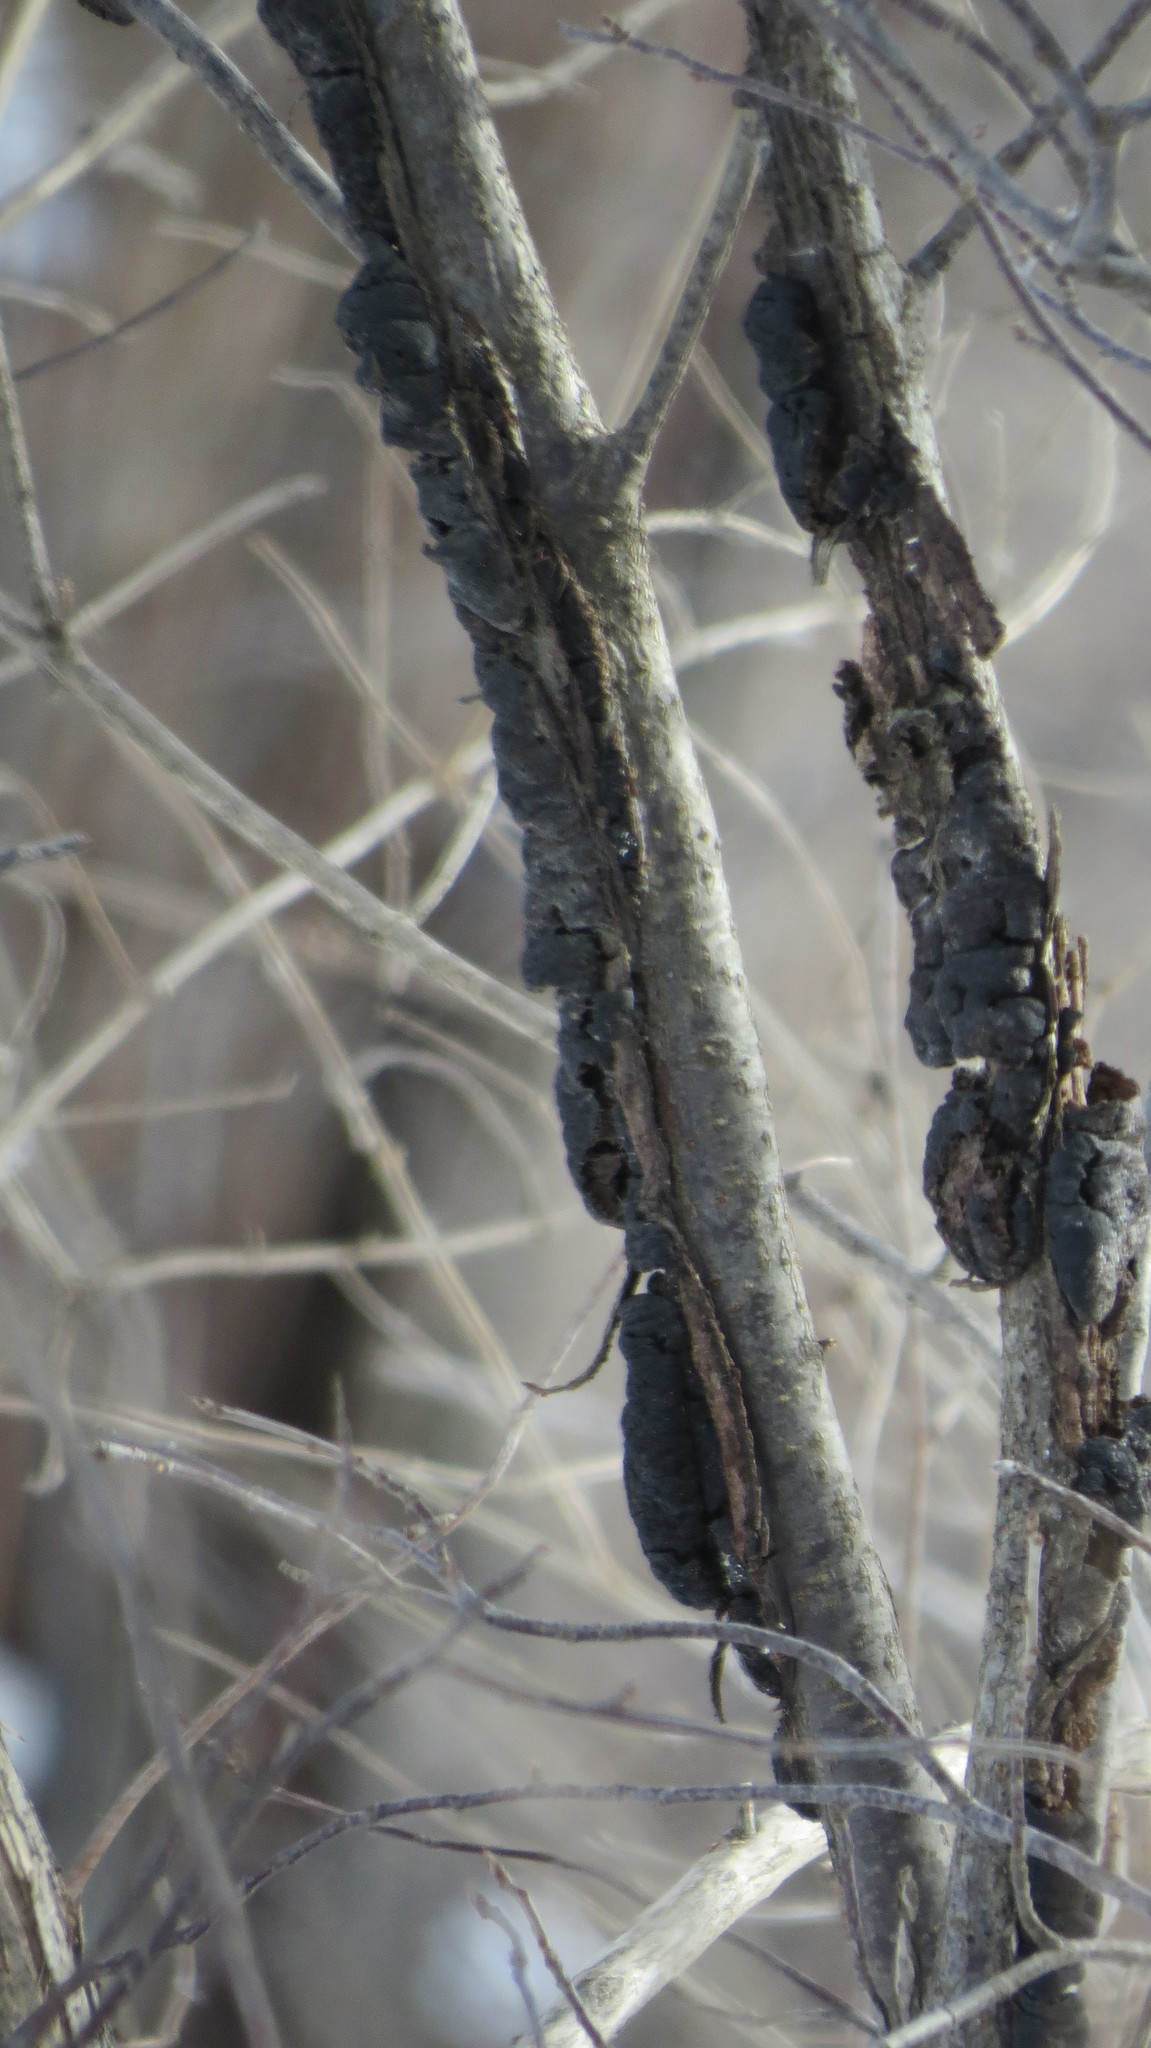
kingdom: Fungi
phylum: Ascomycota
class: Dothideomycetes
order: Venturiales
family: Venturiaceae
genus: Apiosporina
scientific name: Apiosporina morbosa
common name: Black knot
